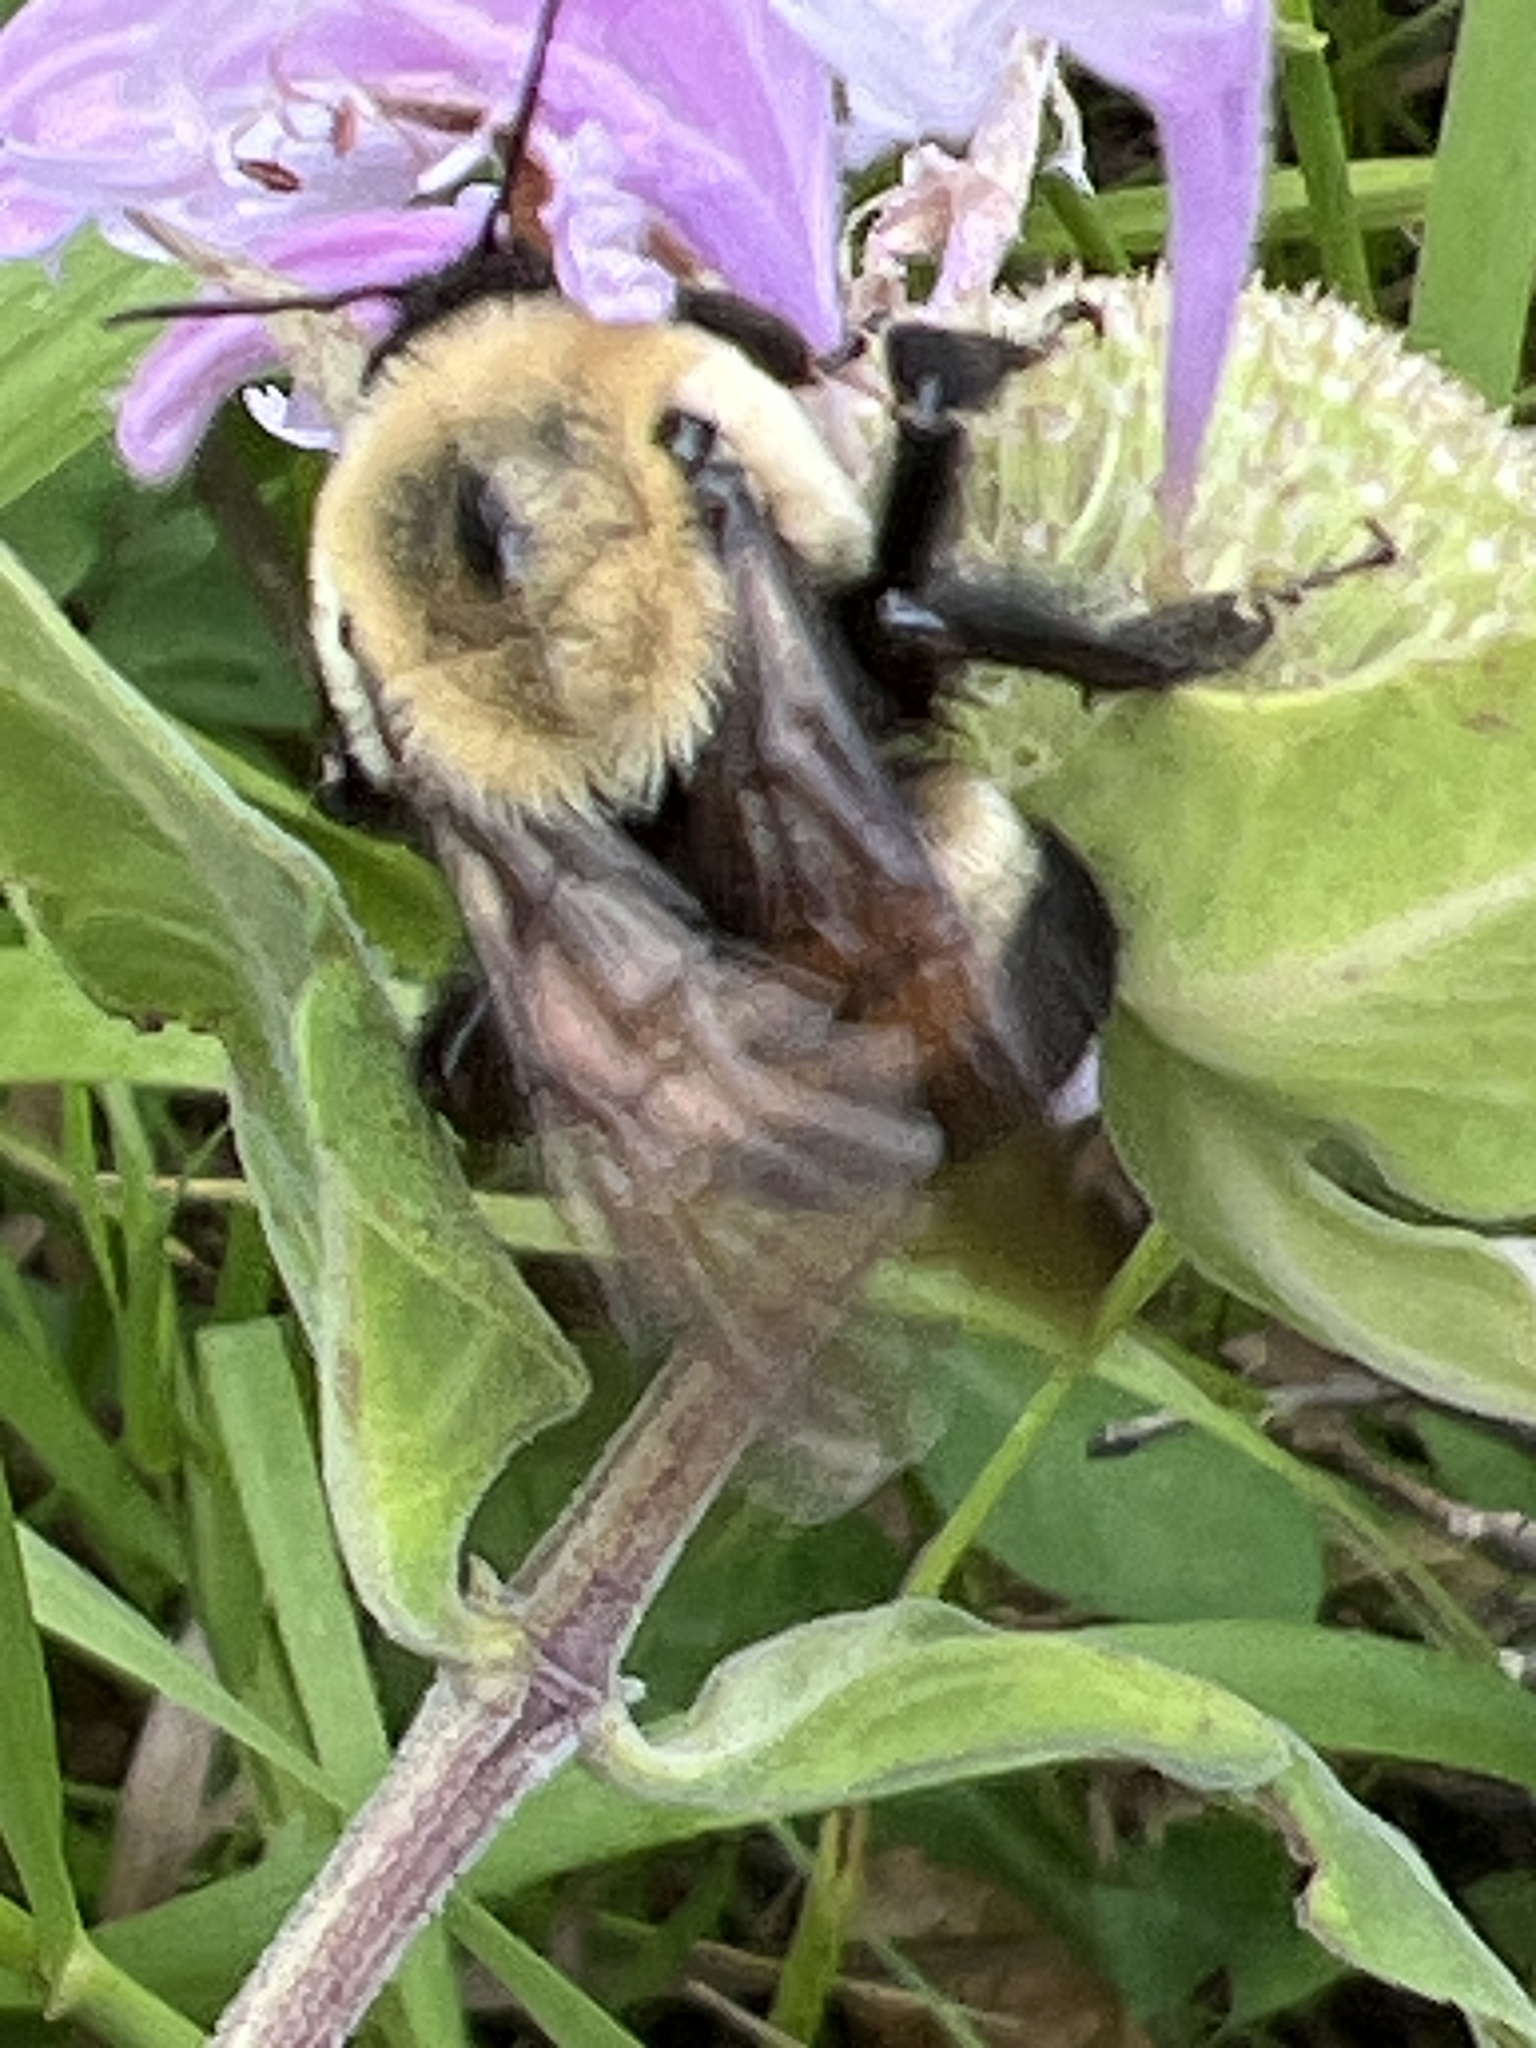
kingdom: Animalia
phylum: Arthropoda
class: Insecta
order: Hymenoptera
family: Apidae
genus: Bombus
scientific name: Bombus griseocollis
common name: Brown-belted bumble bee
